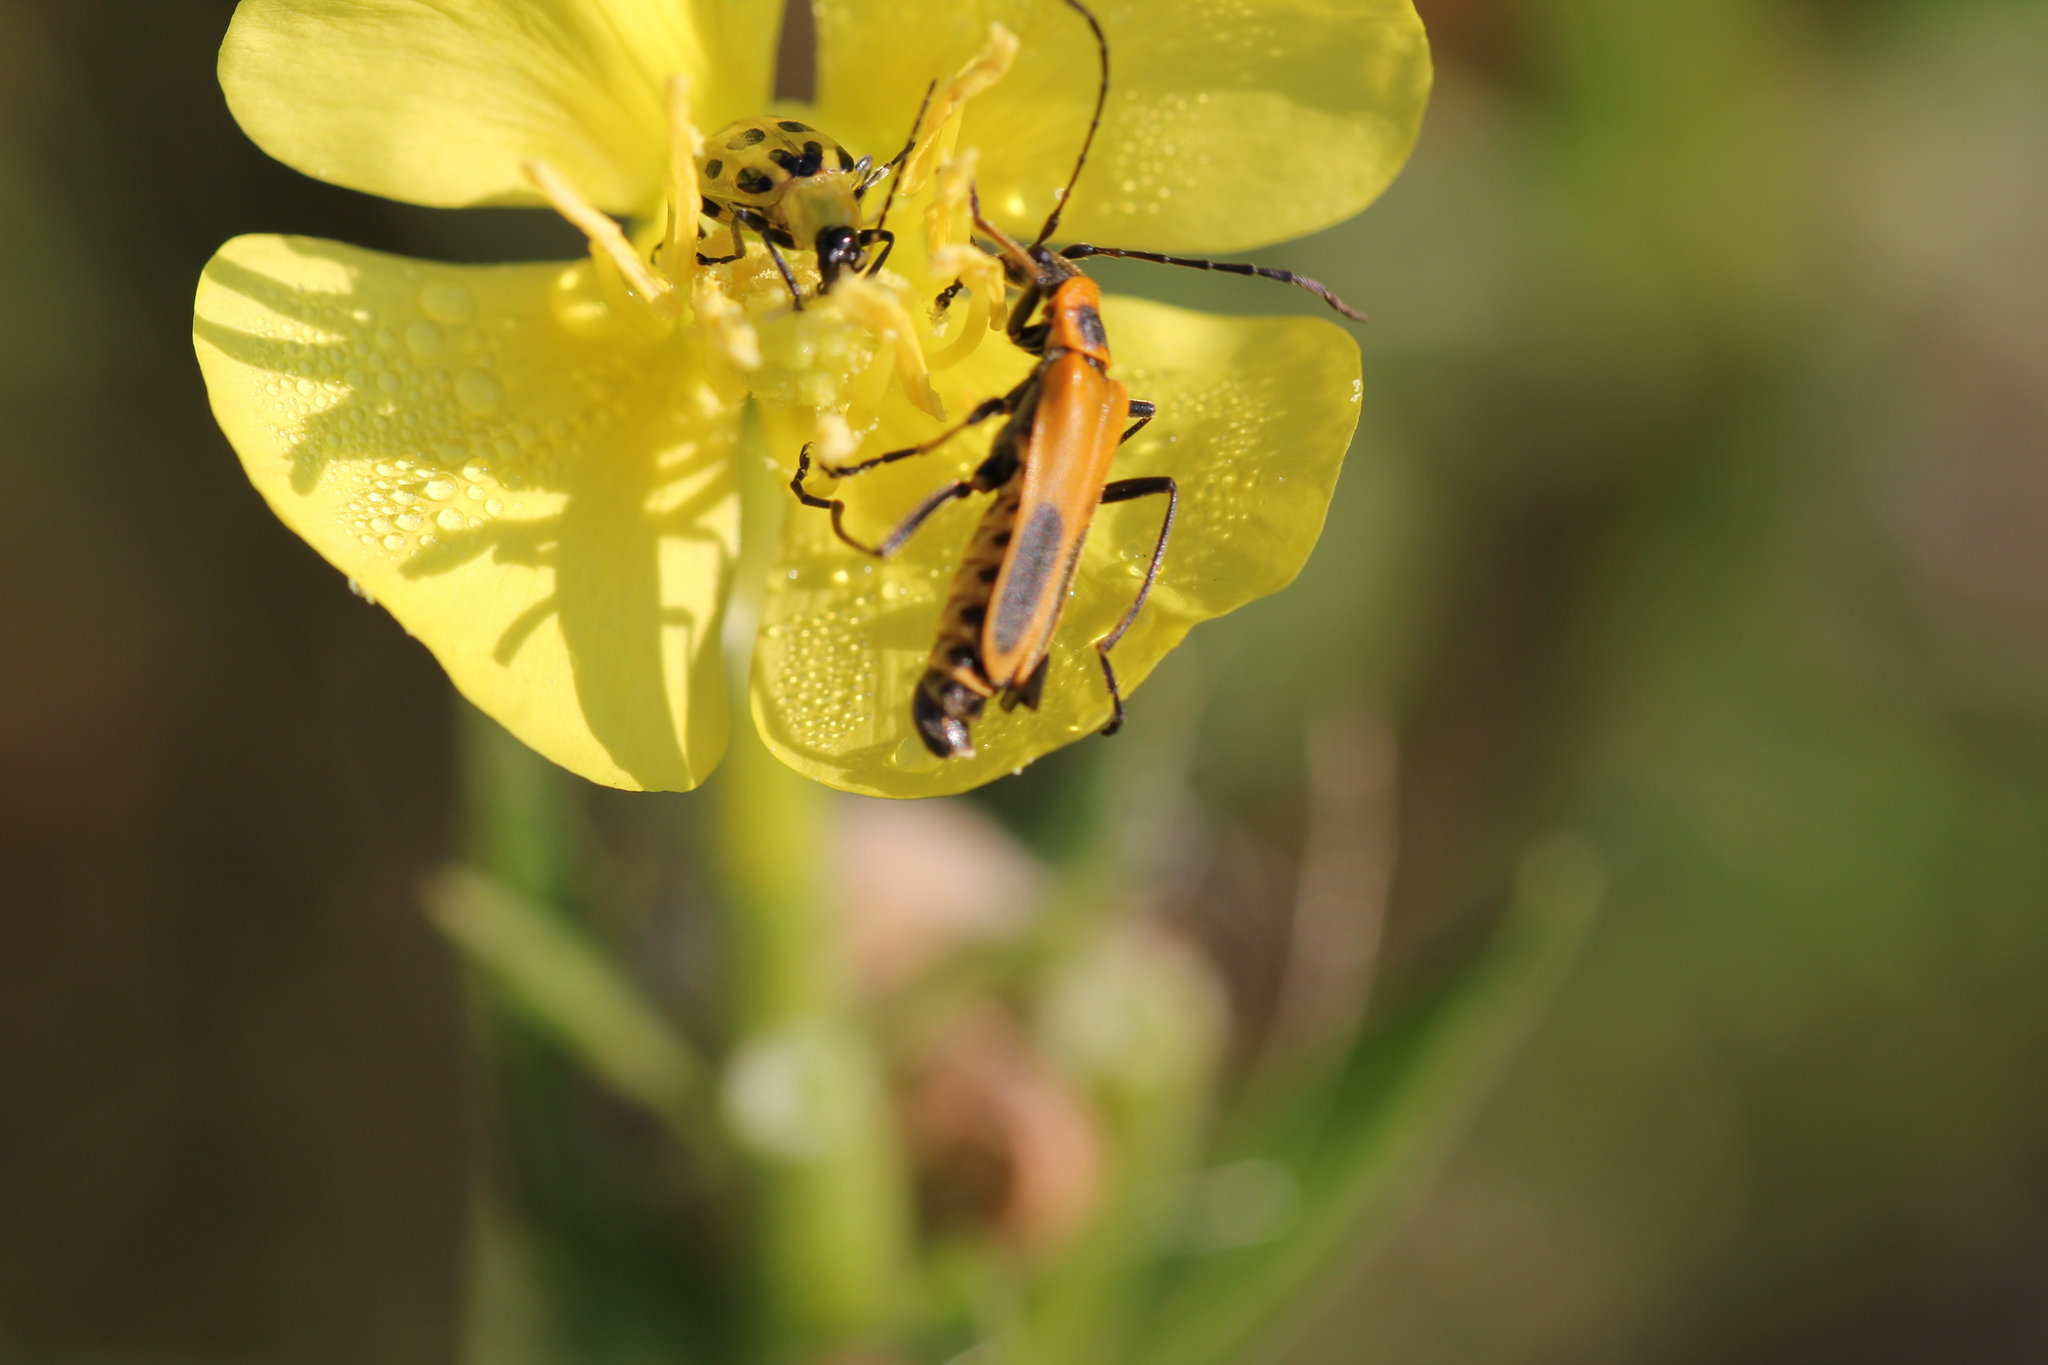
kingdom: Animalia
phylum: Arthropoda
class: Insecta
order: Coleoptera
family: Cantharidae
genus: Chauliognathus
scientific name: Chauliognathus pensylvanicus
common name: Goldenrod soldier beetle
